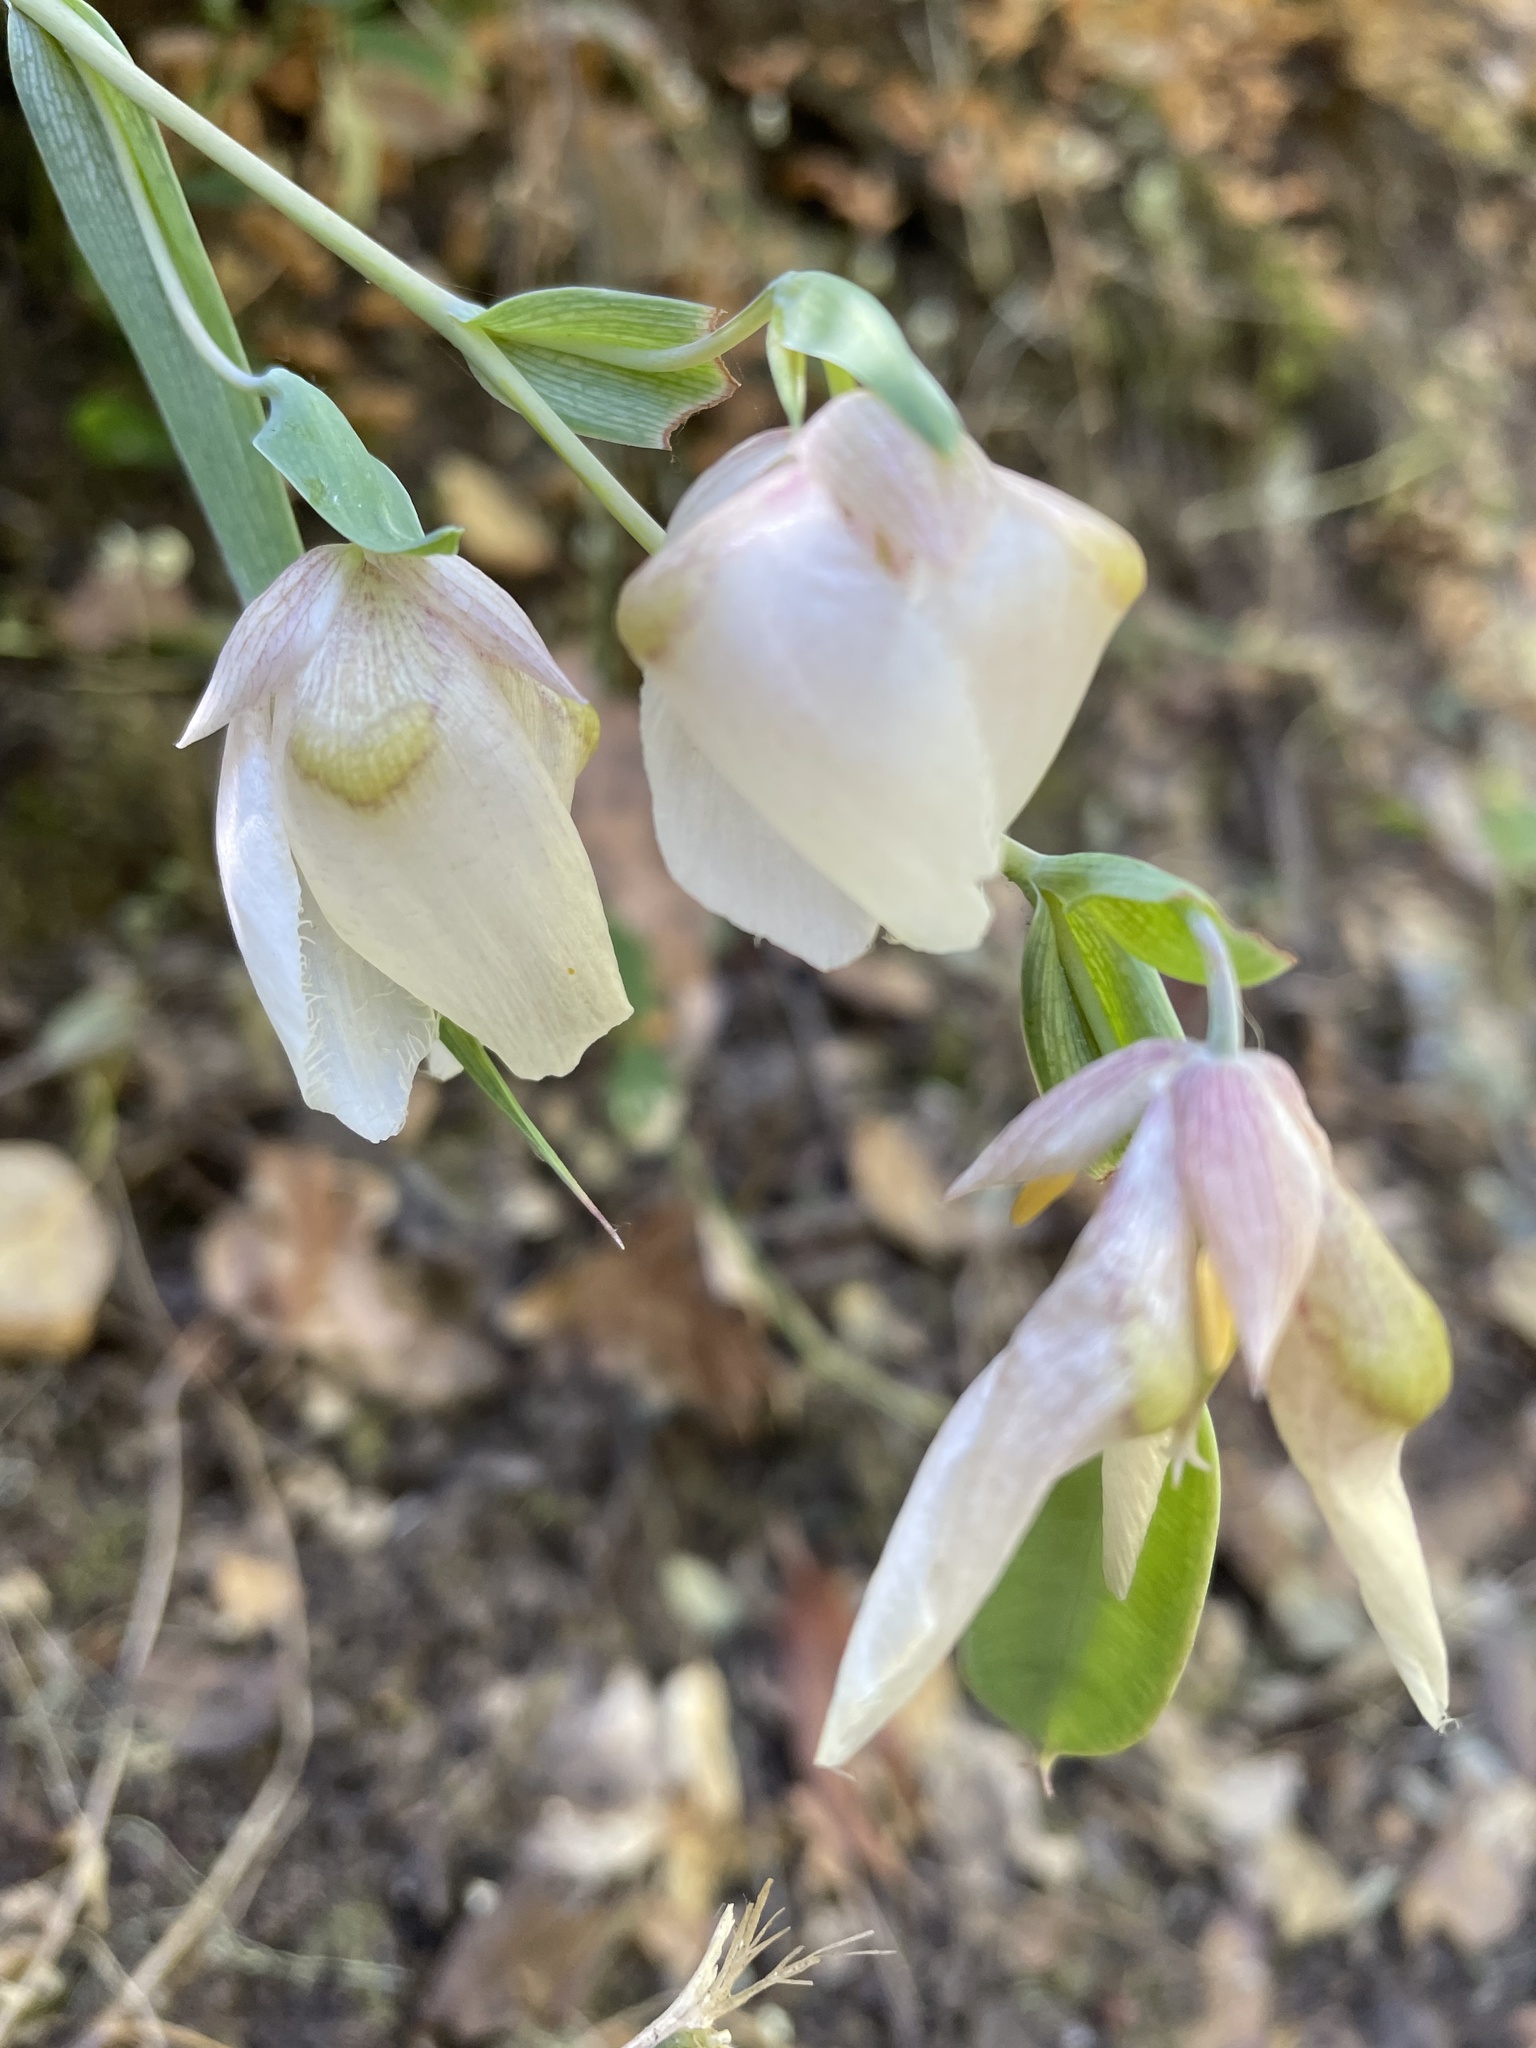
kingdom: Plantae
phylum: Tracheophyta
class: Liliopsida
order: Liliales
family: Liliaceae
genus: Calochortus
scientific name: Calochortus albus
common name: Fairy-lantern
